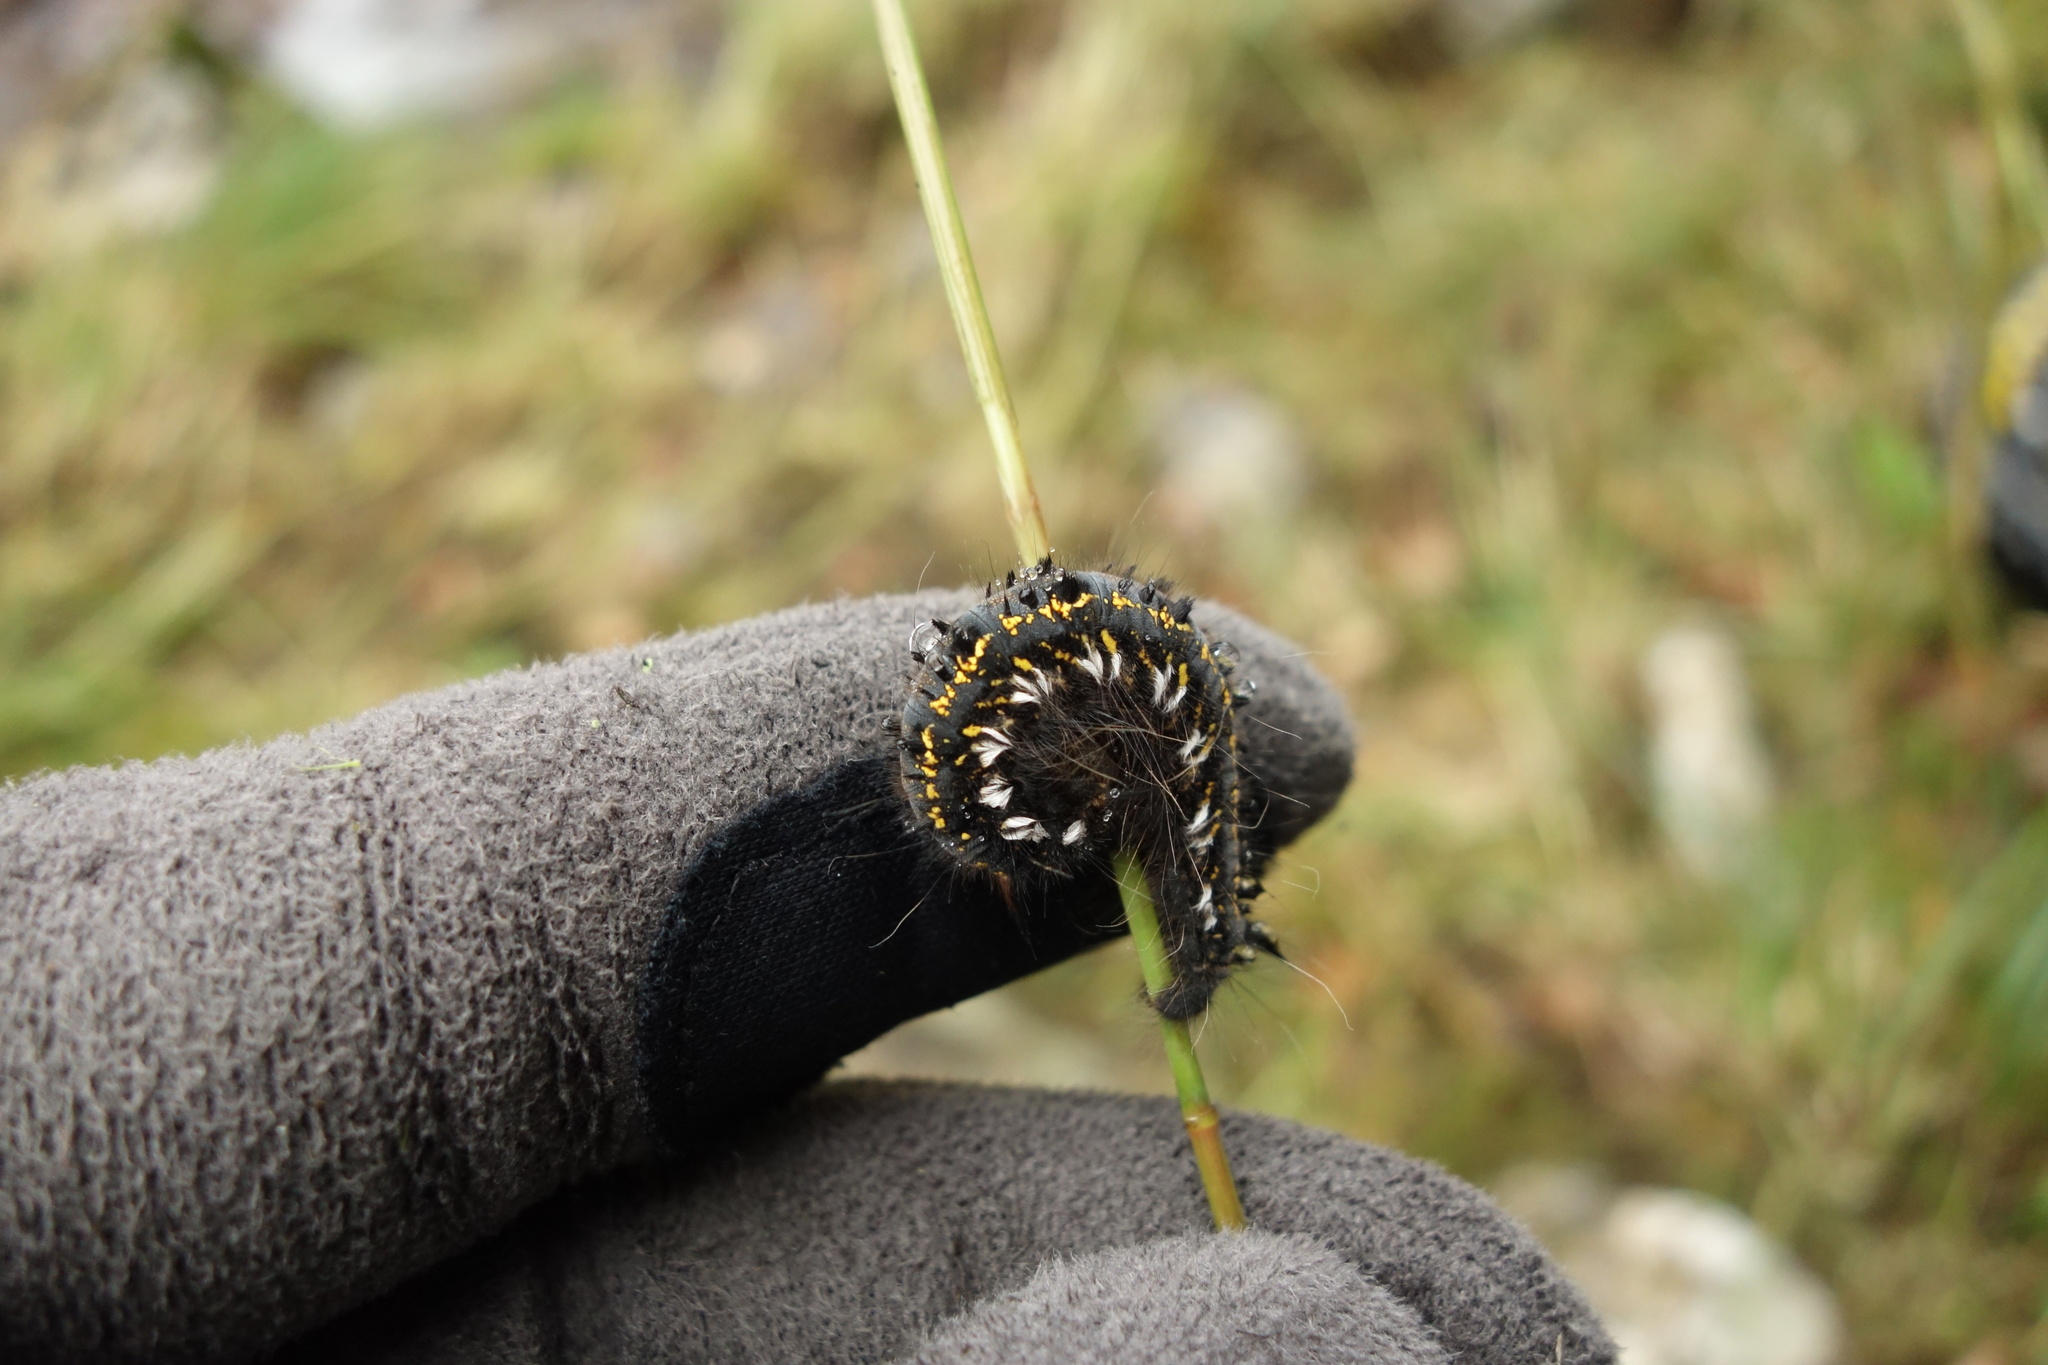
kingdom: Animalia
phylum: Arthropoda
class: Insecta
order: Lepidoptera
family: Lasiocampidae
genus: Euthrix
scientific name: Euthrix potatoria
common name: Drinker
